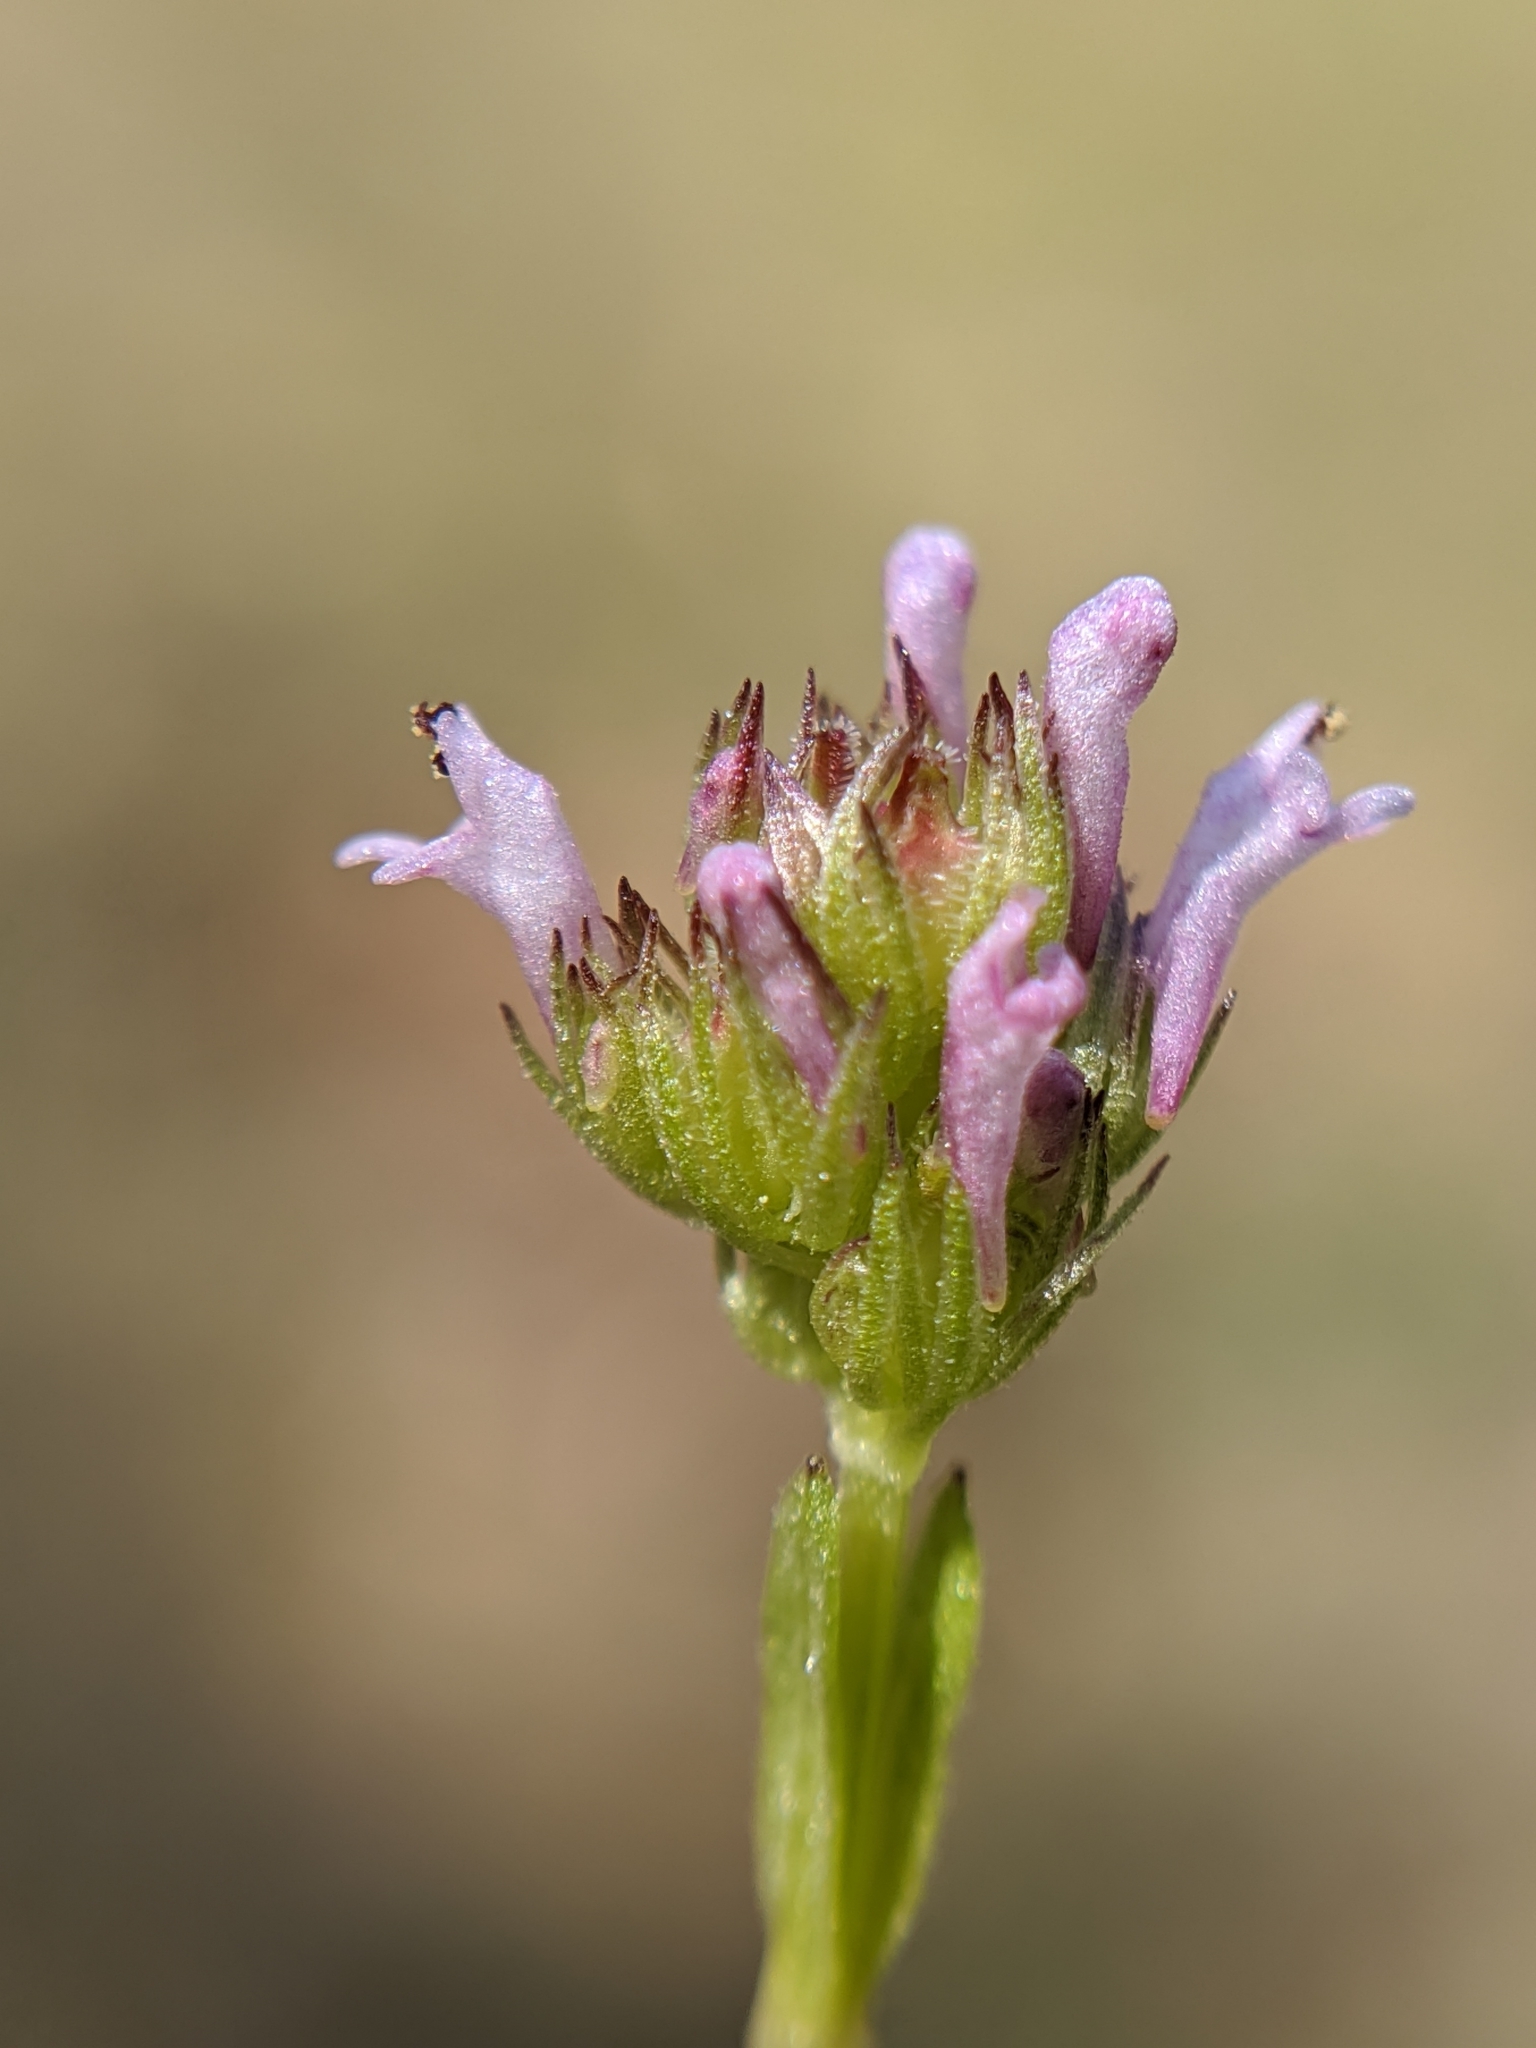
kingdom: Plantae
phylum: Tracheophyta
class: Magnoliopsida
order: Dipsacales
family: Caprifoliaceae
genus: Plectritis
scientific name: Plectritis ciliosa
